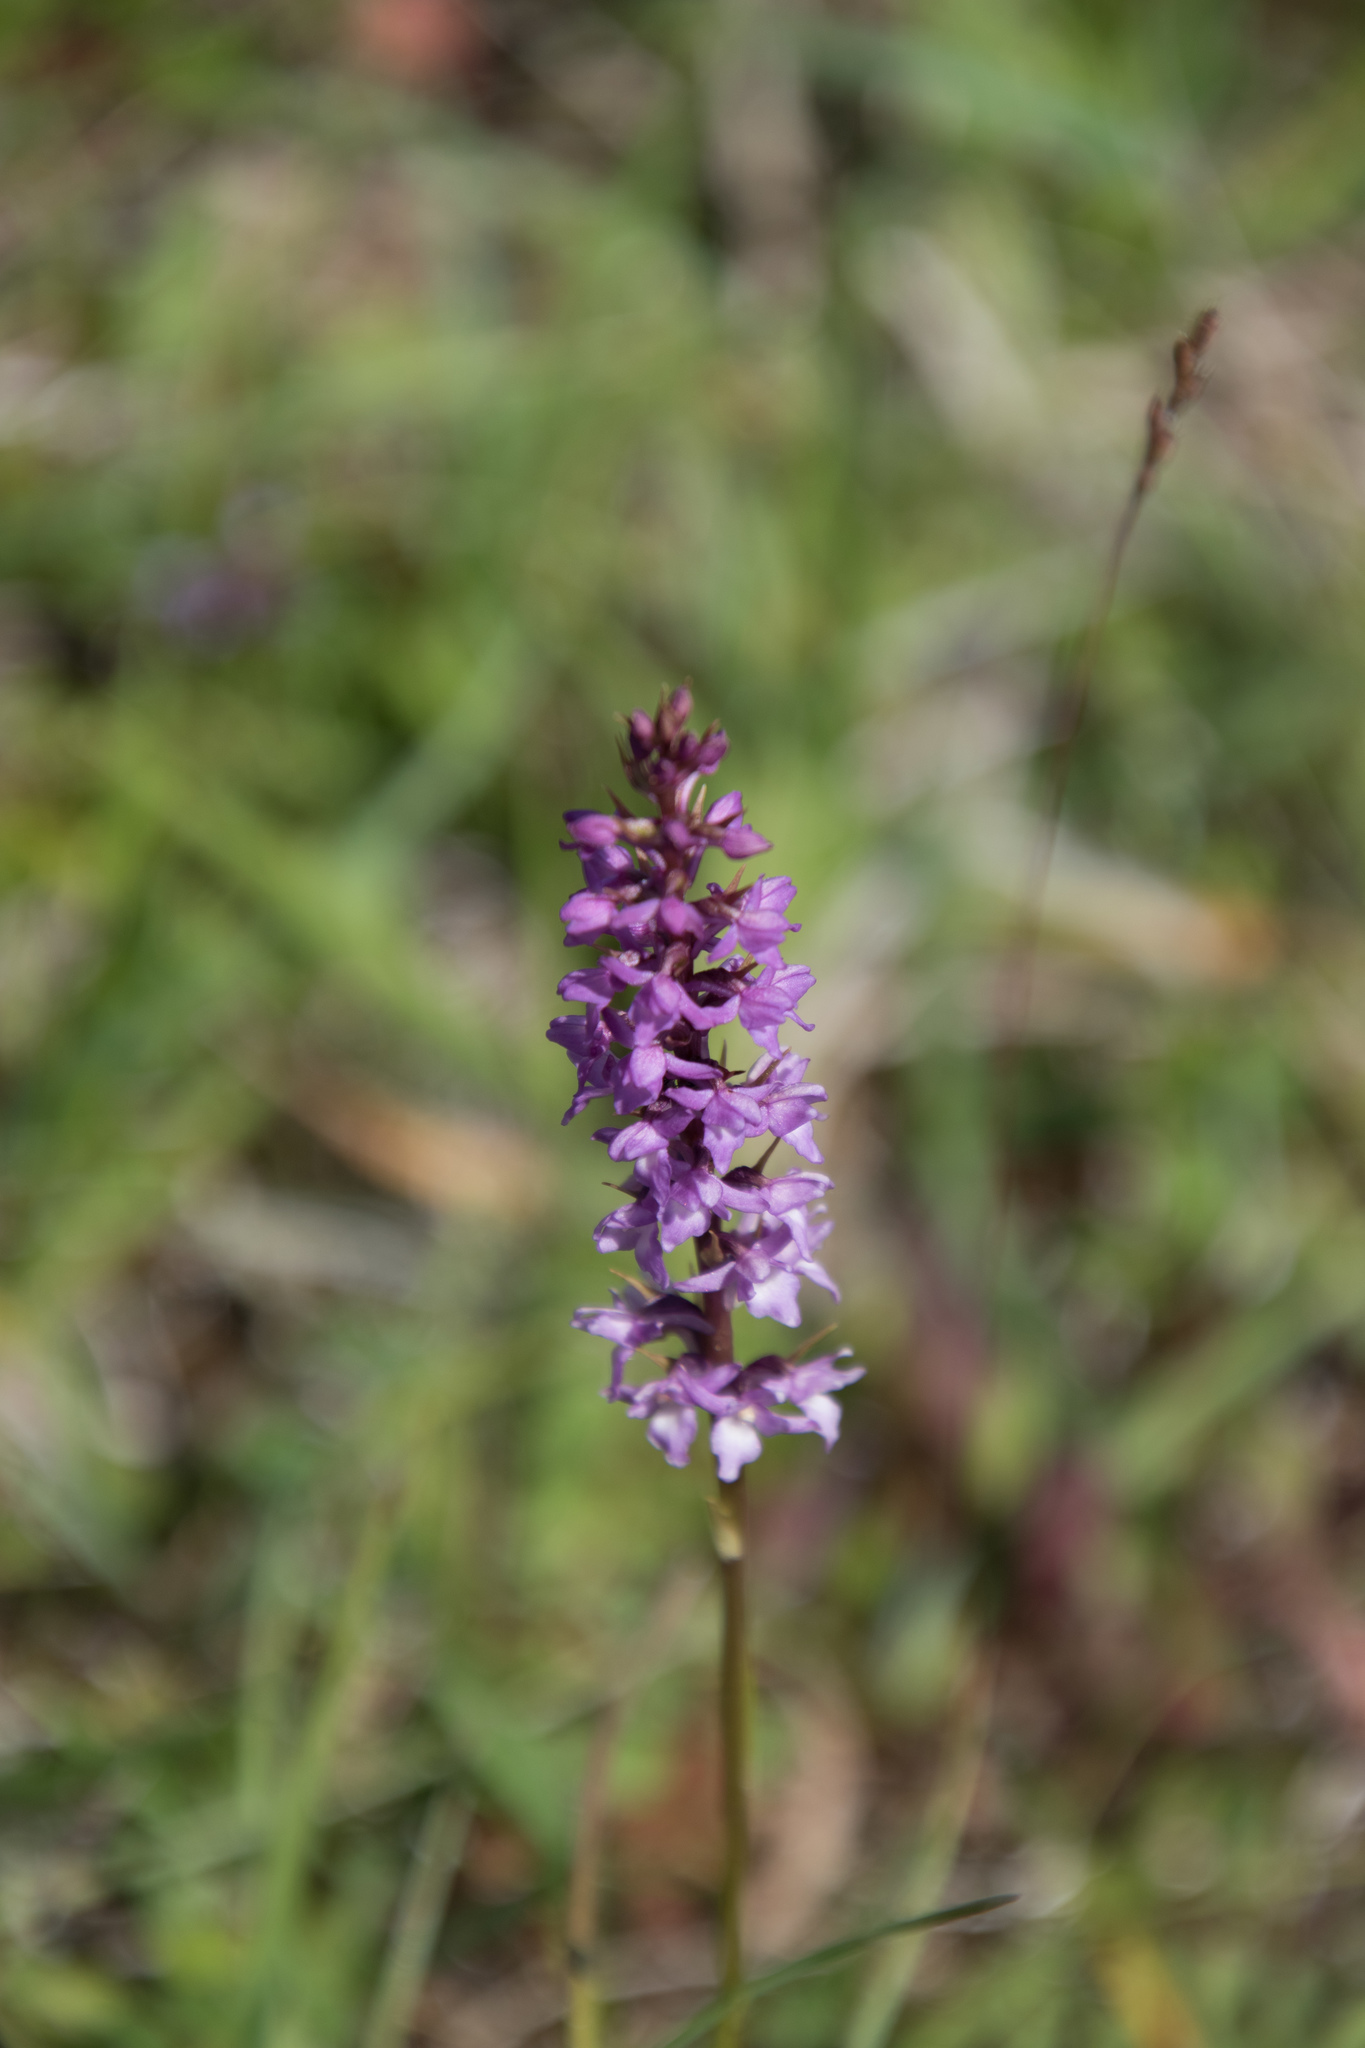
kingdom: Plantae
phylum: Tracheophyta
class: Liliopsida
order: Asparagales
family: Orchidaceae
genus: Gymnadenia
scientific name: Gymnadenia odoratissima
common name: Scented gymnadenia
